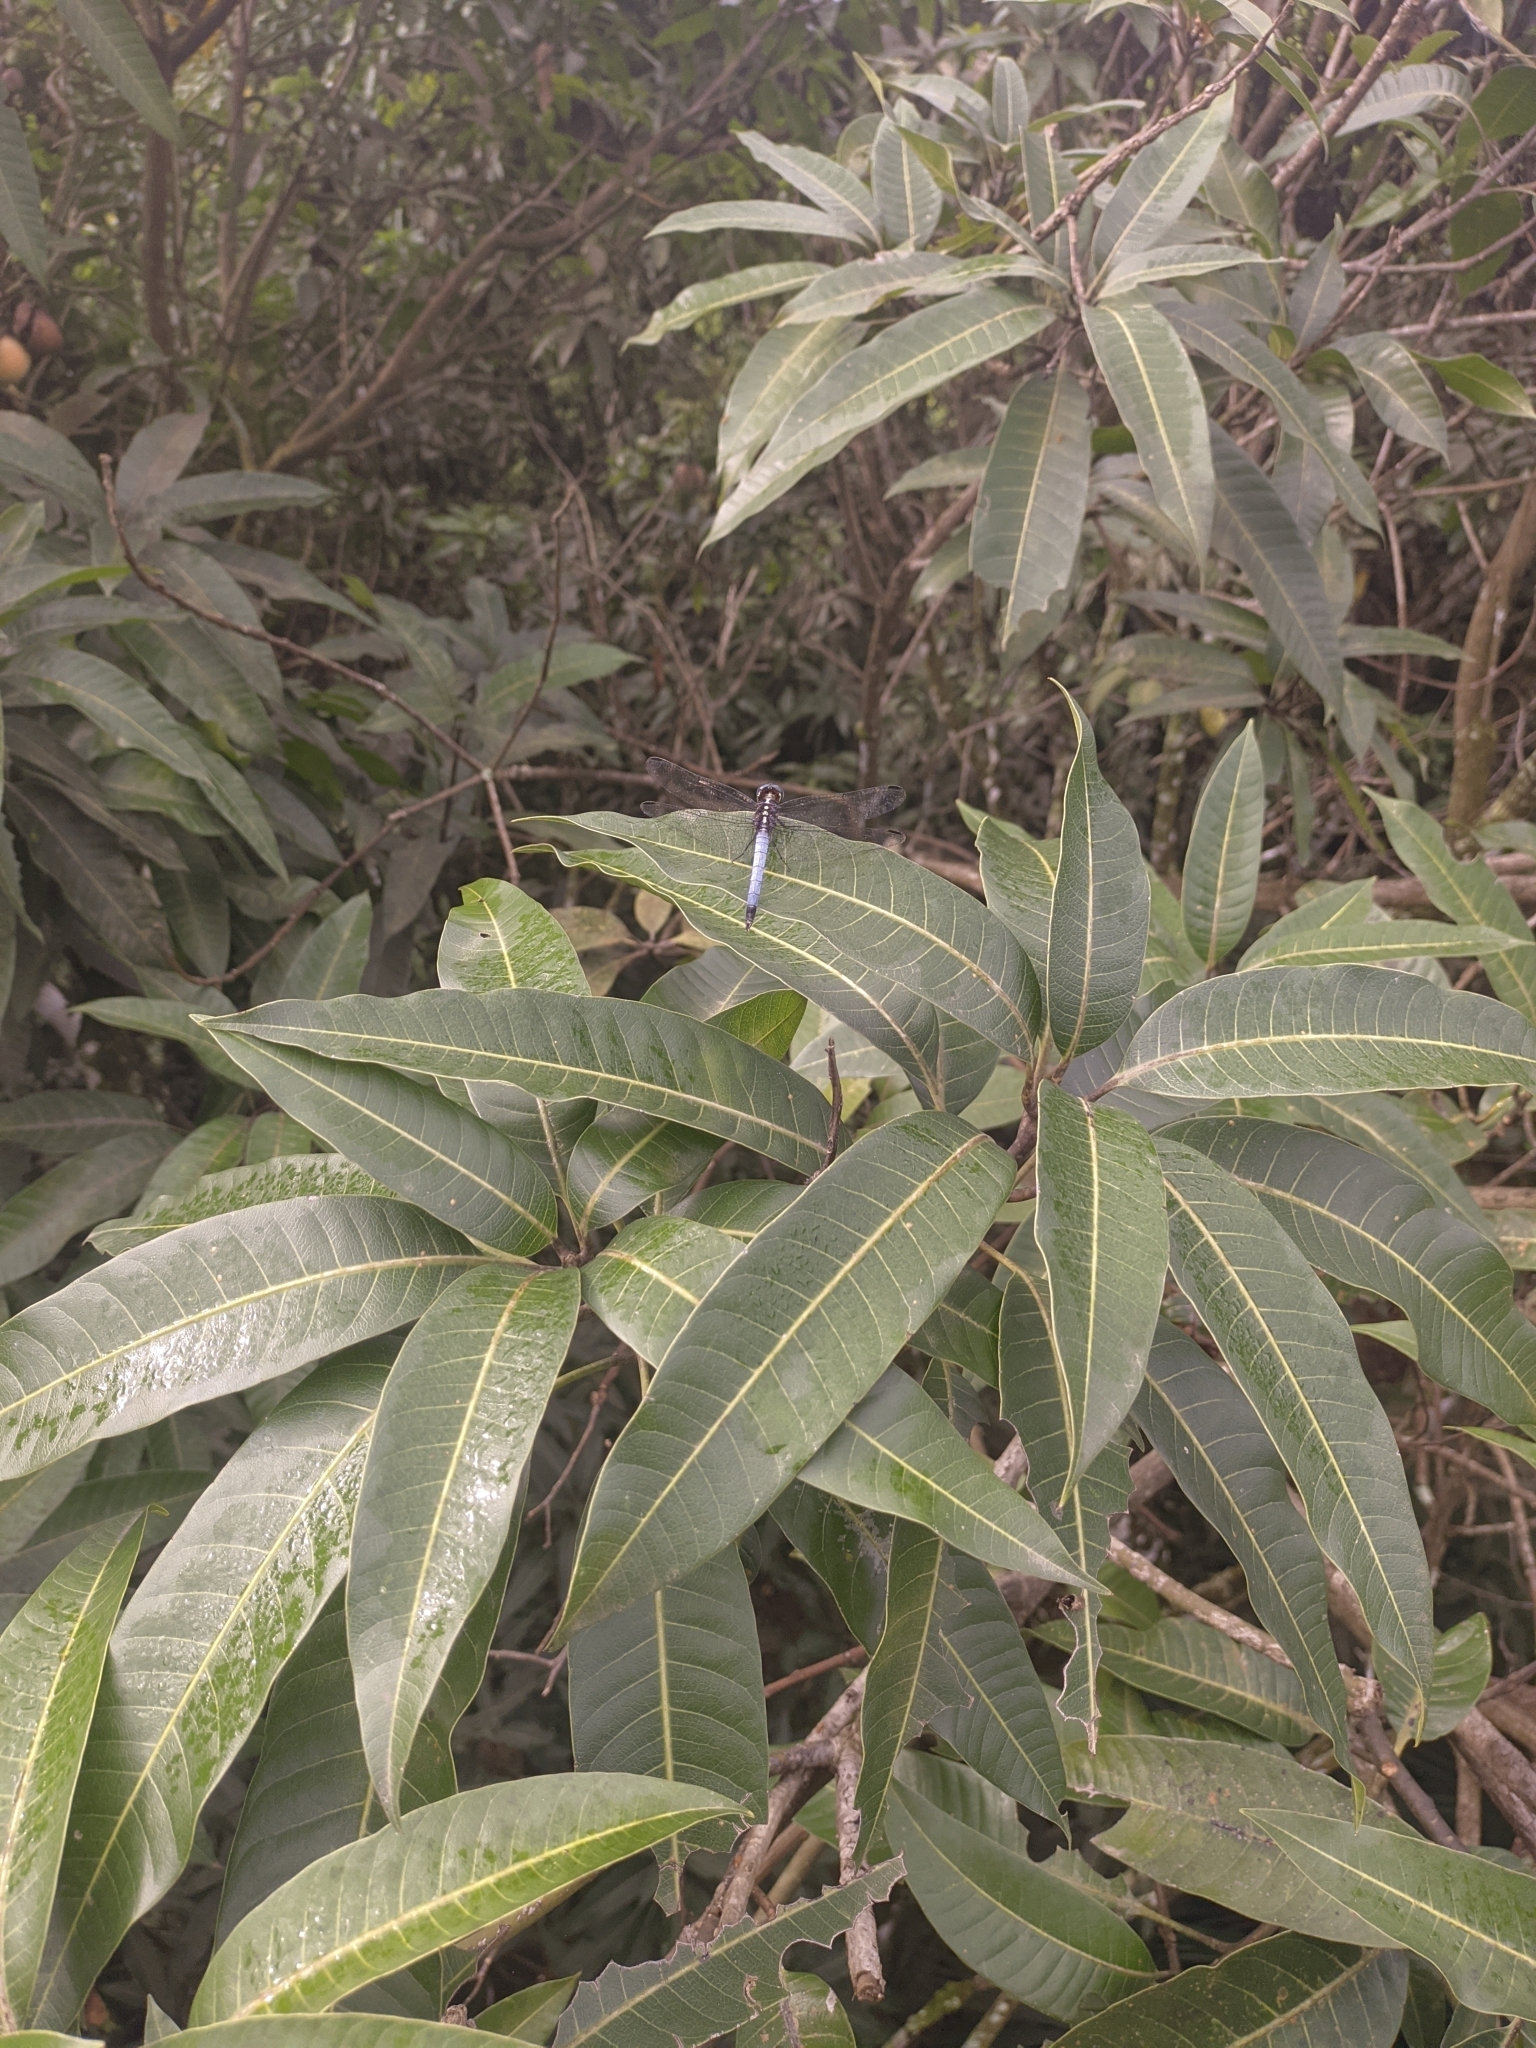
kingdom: Animalia
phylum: Arthropoda
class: Insecta
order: Odonata
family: Libellulidae
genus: Cannaphila
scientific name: Cannaphila vibex
